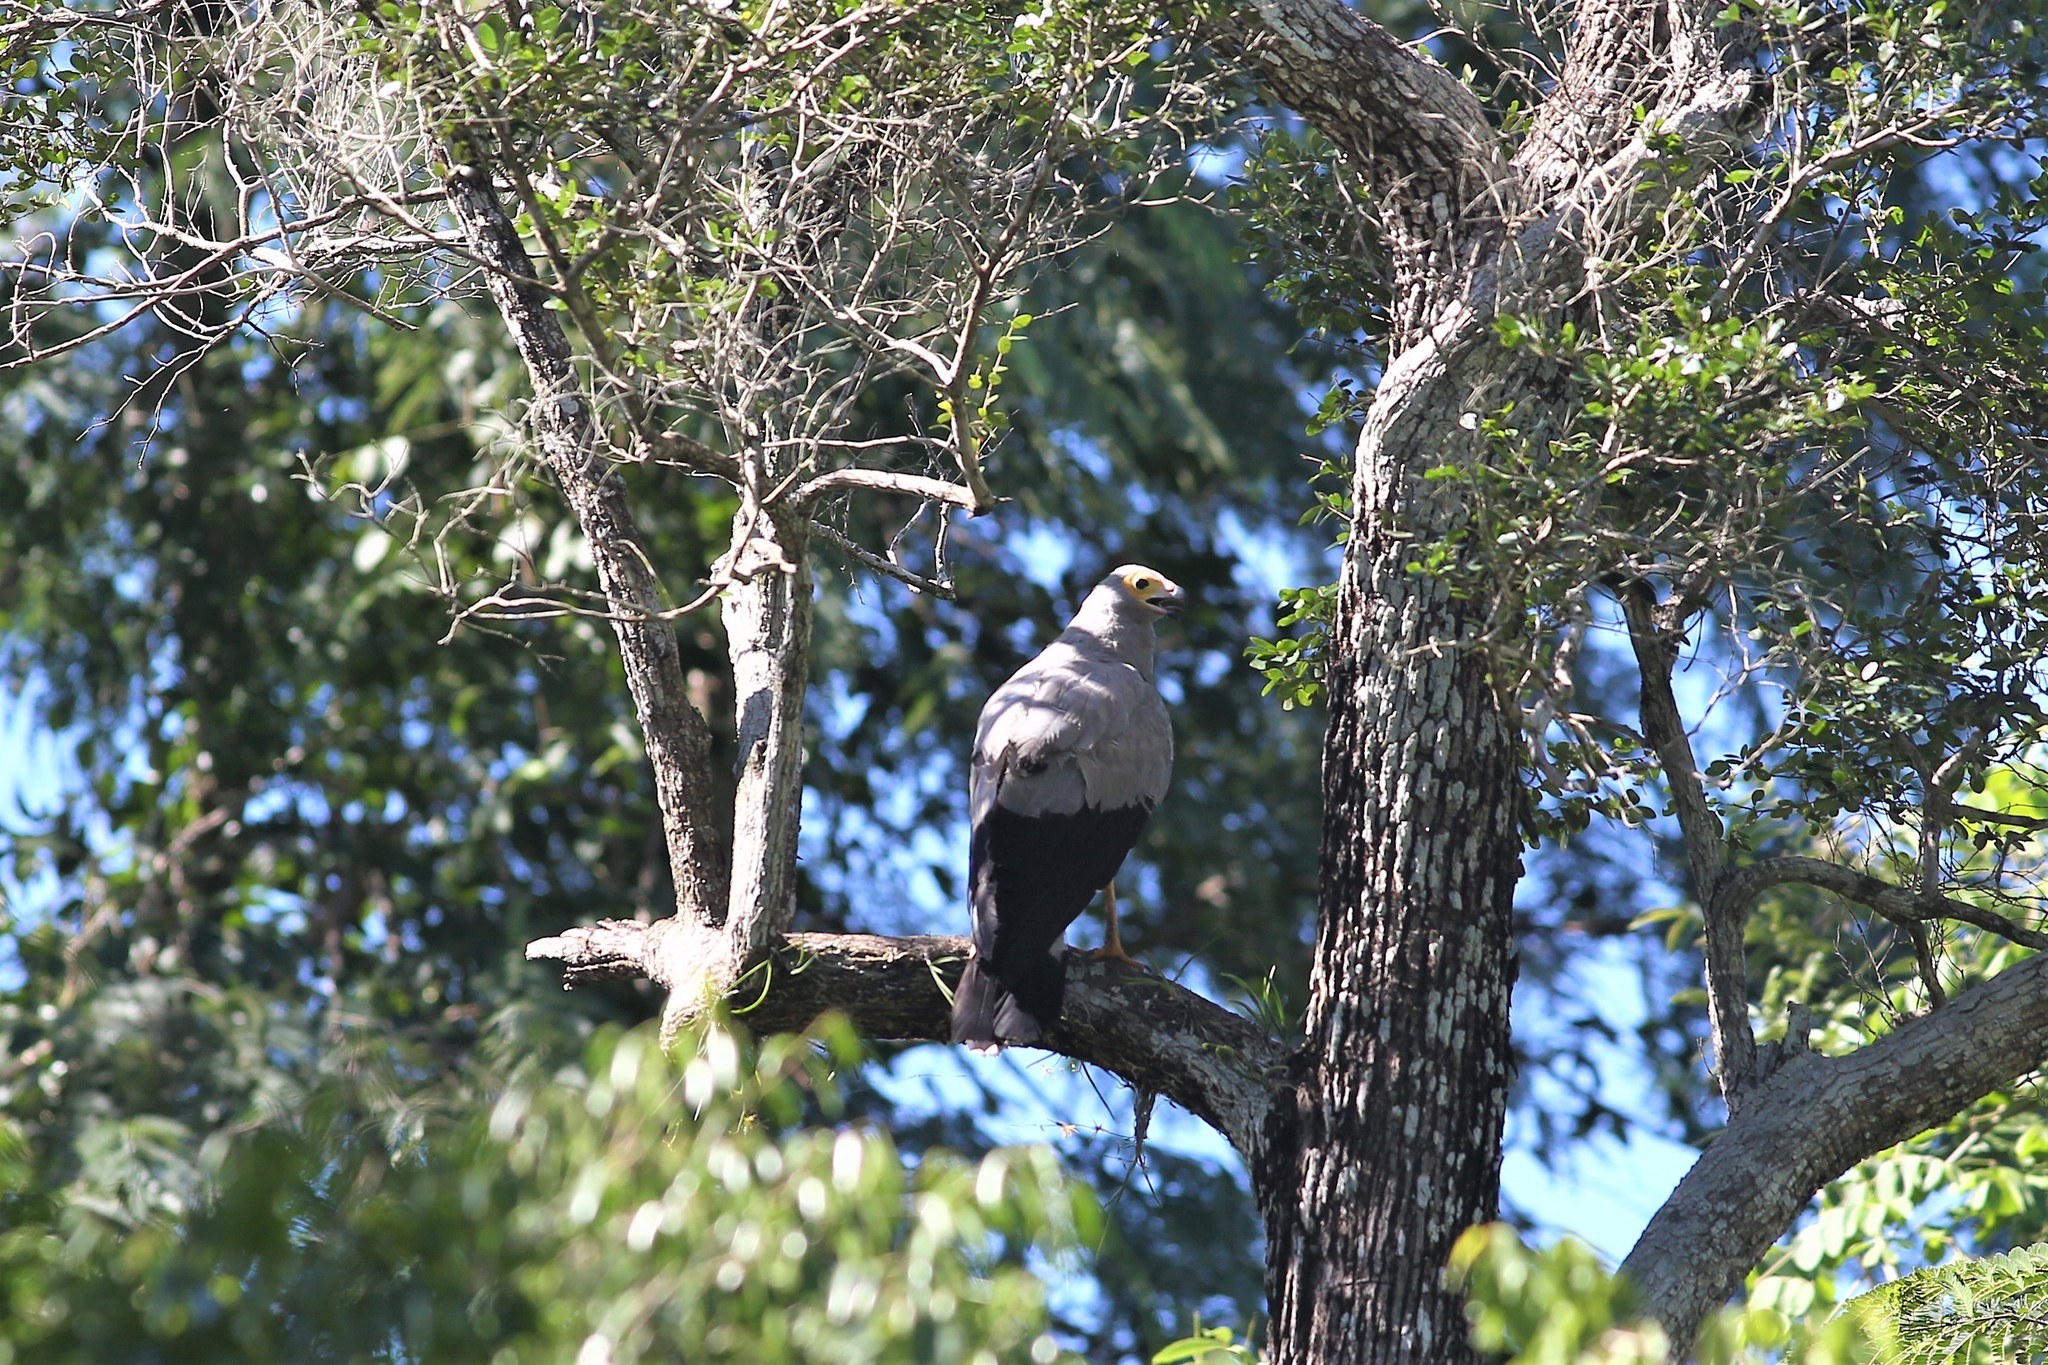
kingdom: Animalia
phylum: Chordata
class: Aves
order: Accipitriformes
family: Accipitridae
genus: Polyboroides
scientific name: Polyboroides radiatus
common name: Madagascar harrier-hawk
